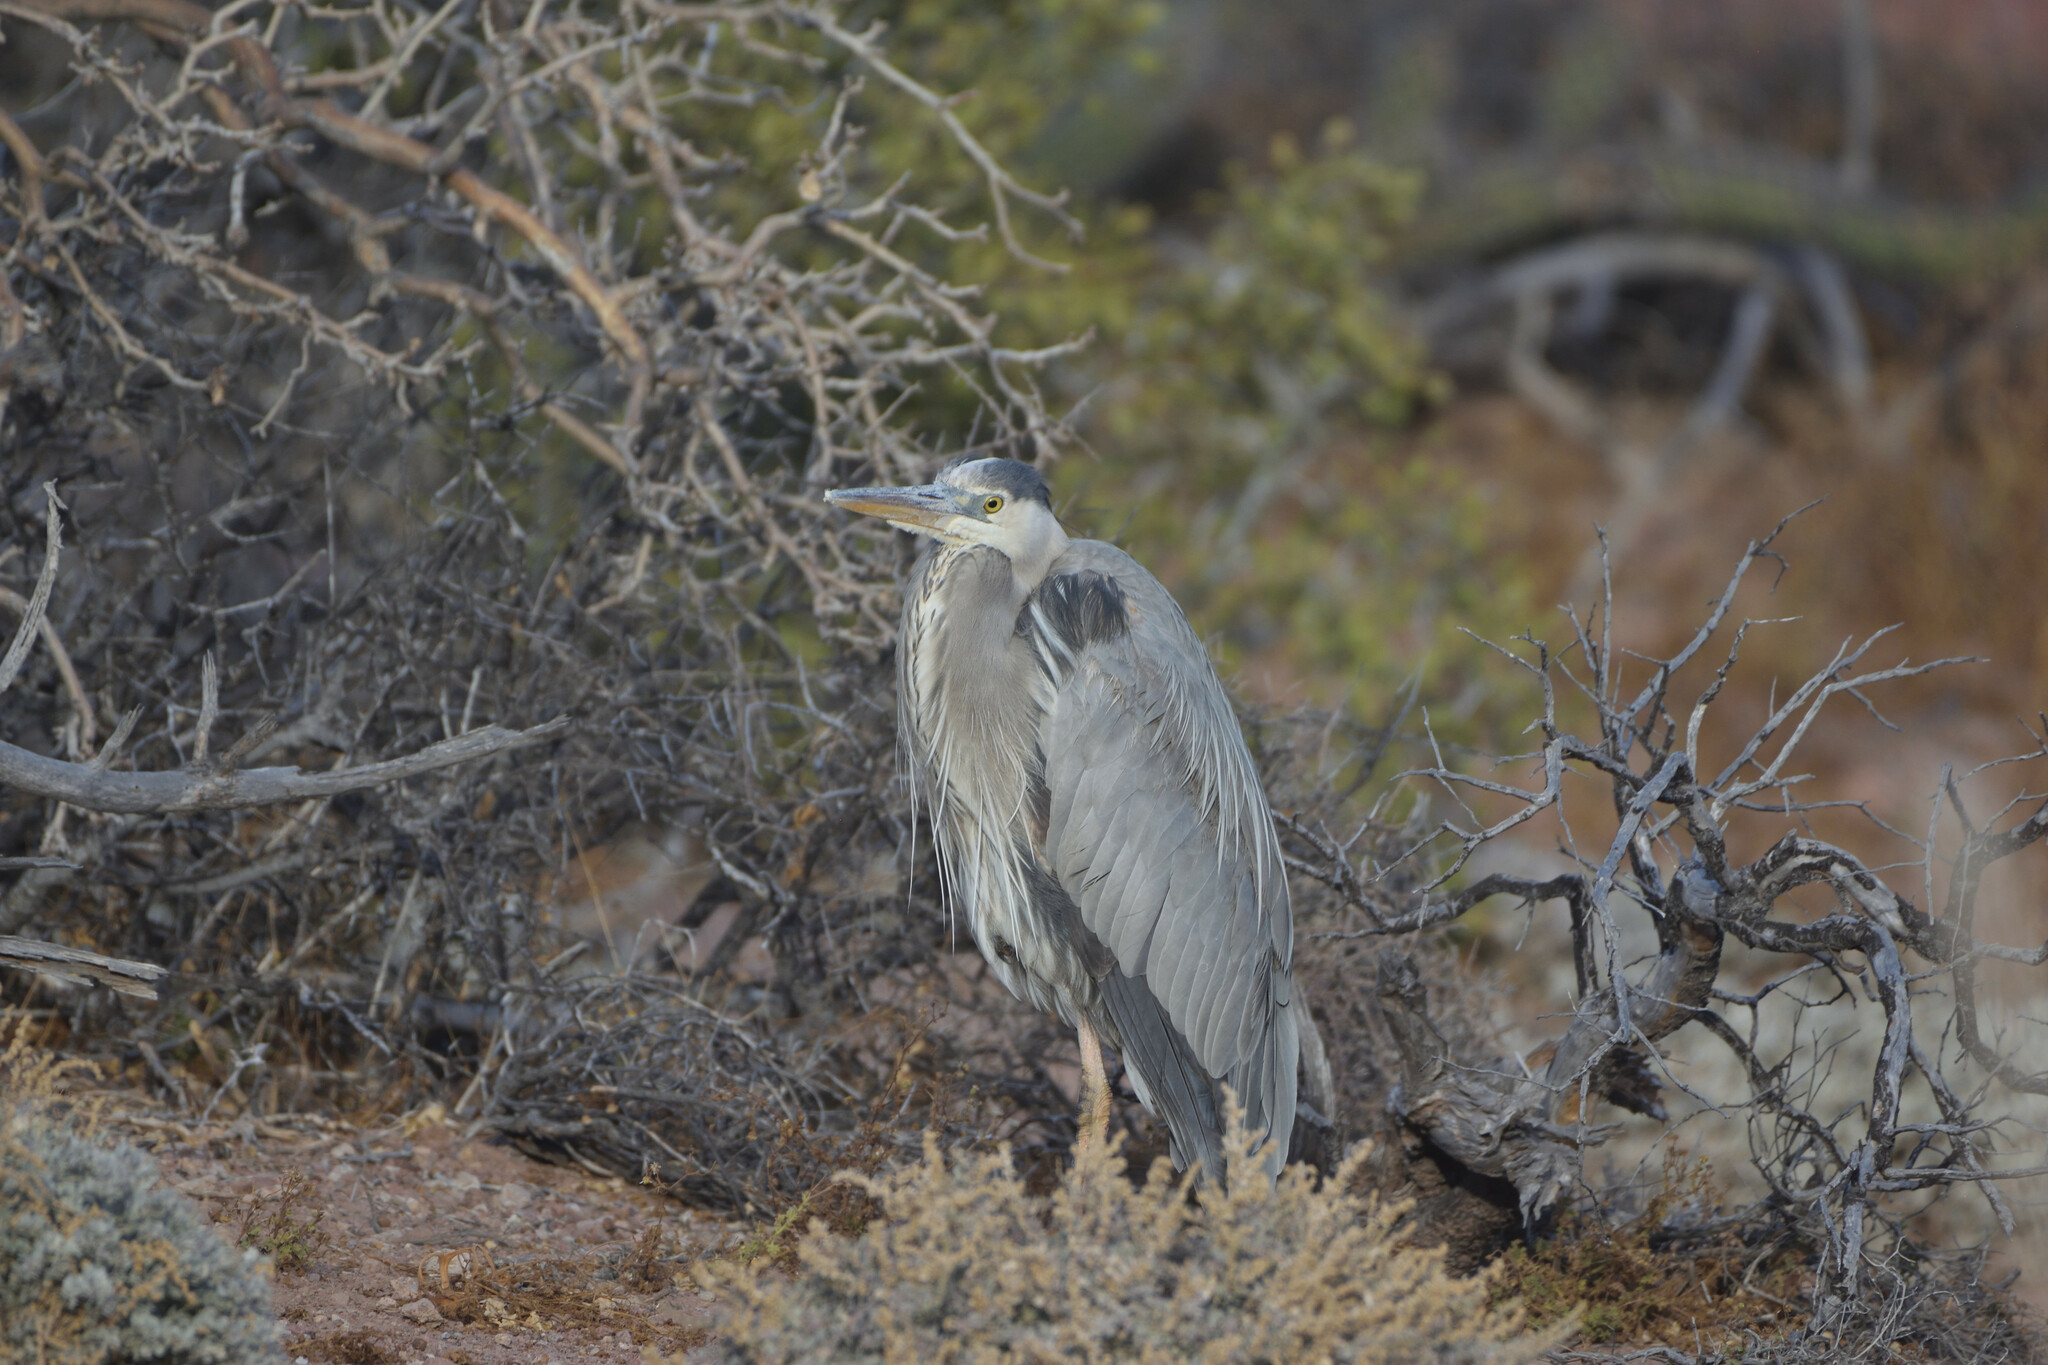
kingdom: Animalia
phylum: Chordata
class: Aves
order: Pelecaniformes
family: Ardeidae
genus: Ardea
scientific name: Ardea herodias
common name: Great blue heron
